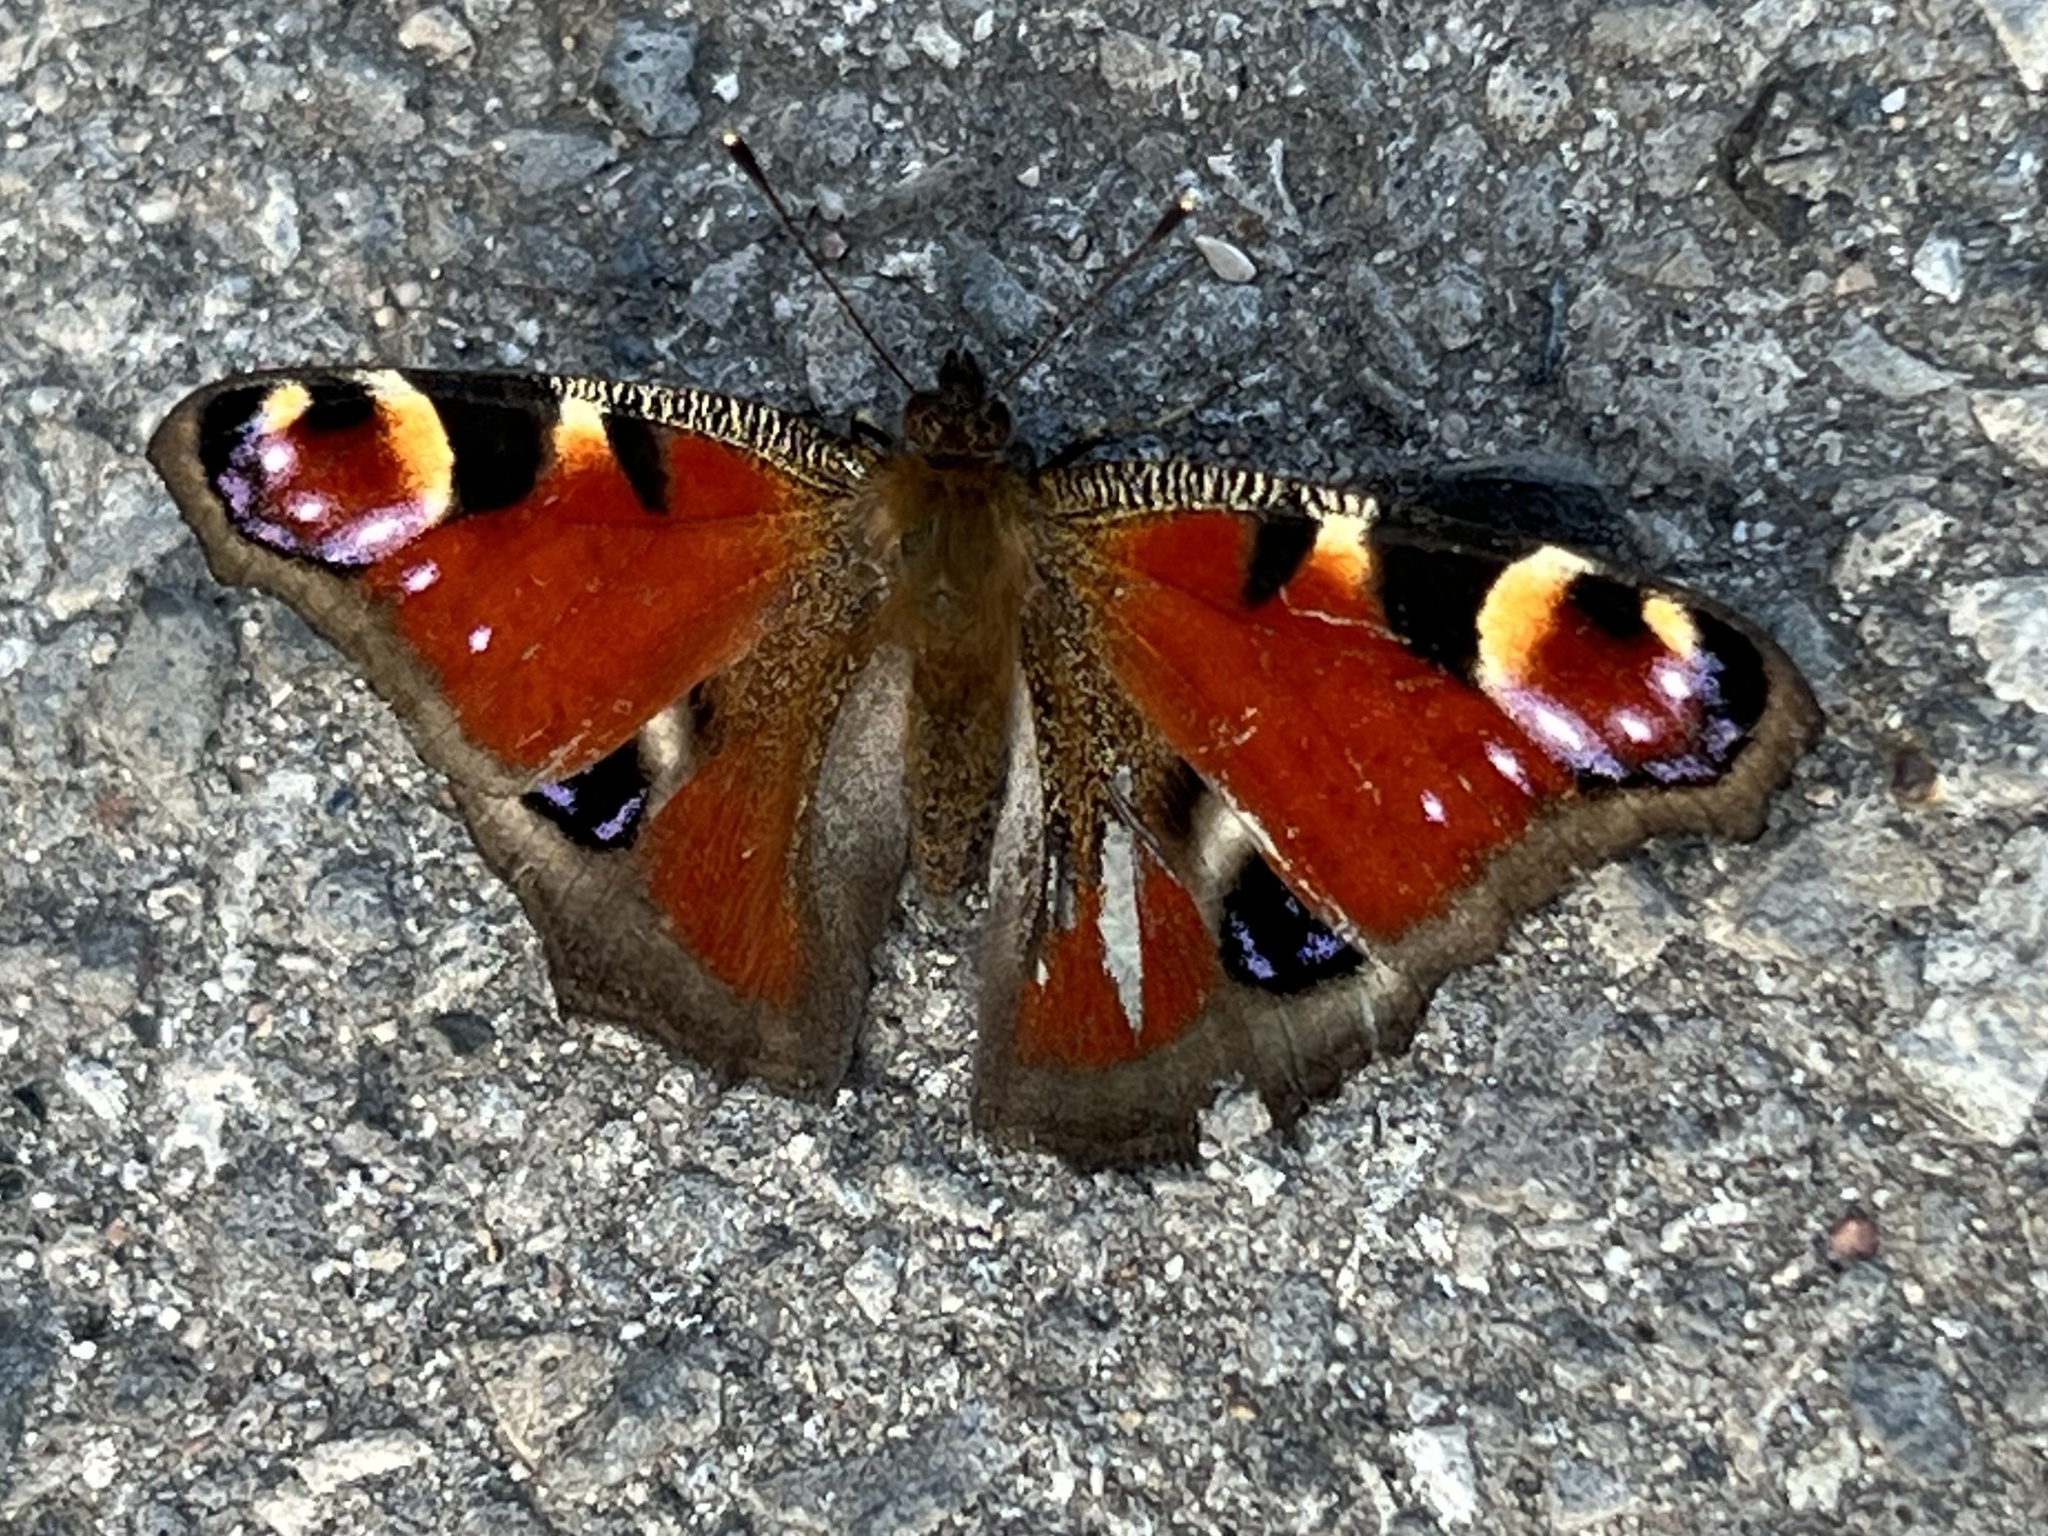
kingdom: Animalia
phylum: Arthropoda
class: Insecta
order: Lepidoptera
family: Nymphalidae
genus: Aglais
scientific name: Aglais io
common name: Peacock
